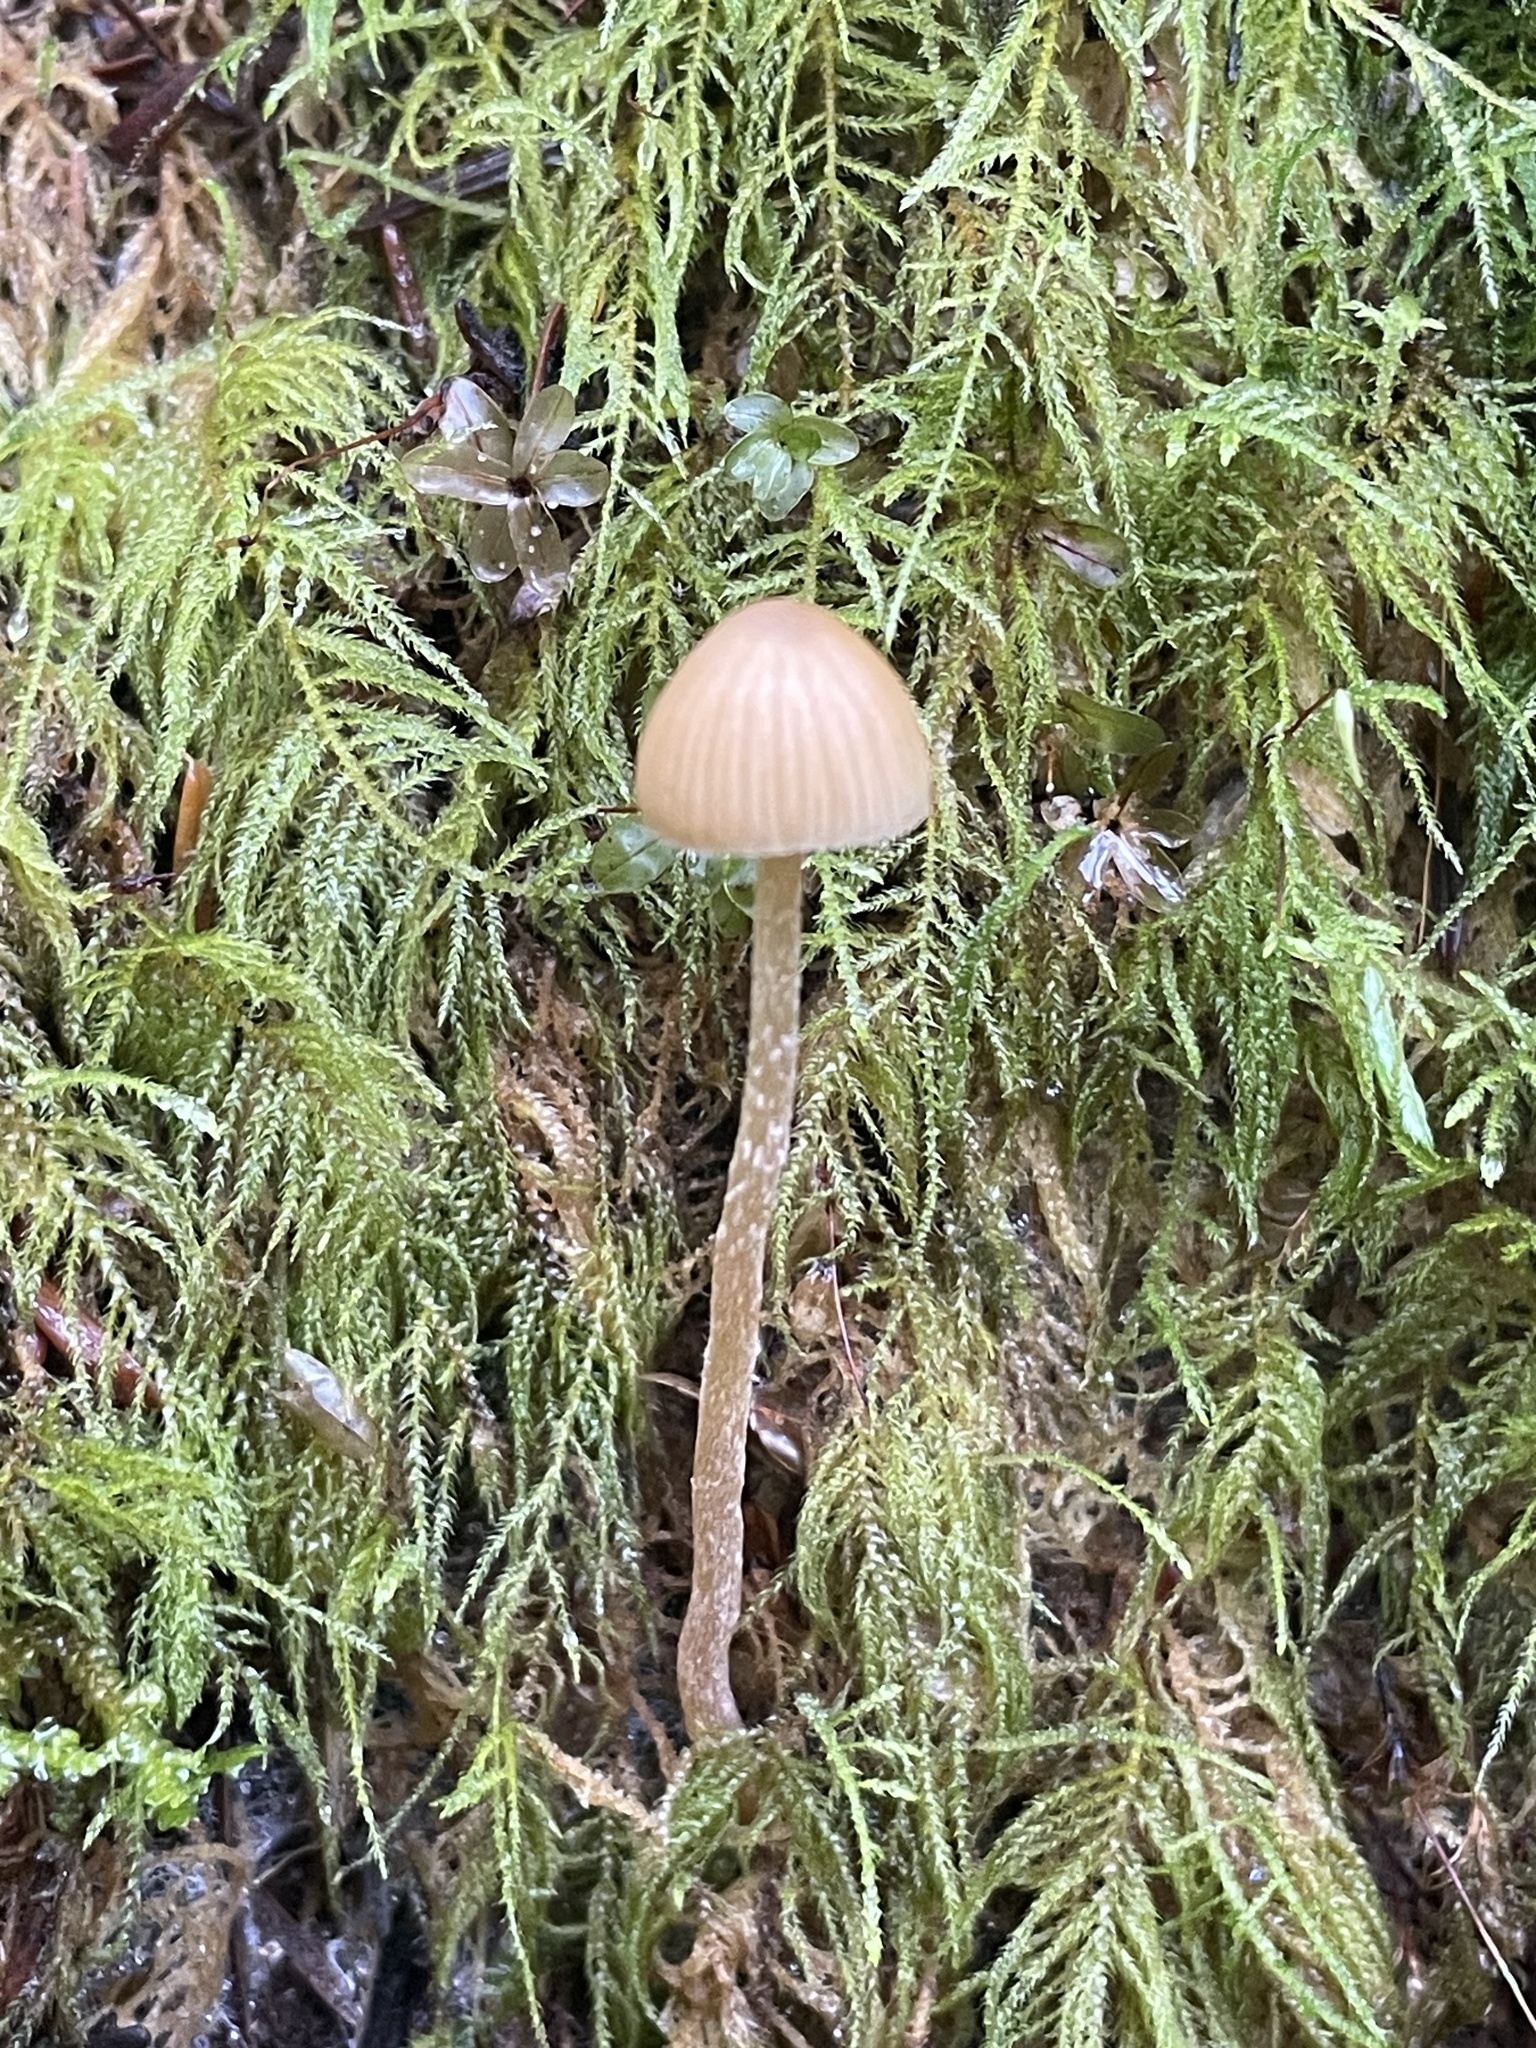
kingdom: Fungi
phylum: Basidiomycota
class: Agaricomycetes
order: Agaricales
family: Hymenogastraceae
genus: Galerina
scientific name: Galerina semilanceata
